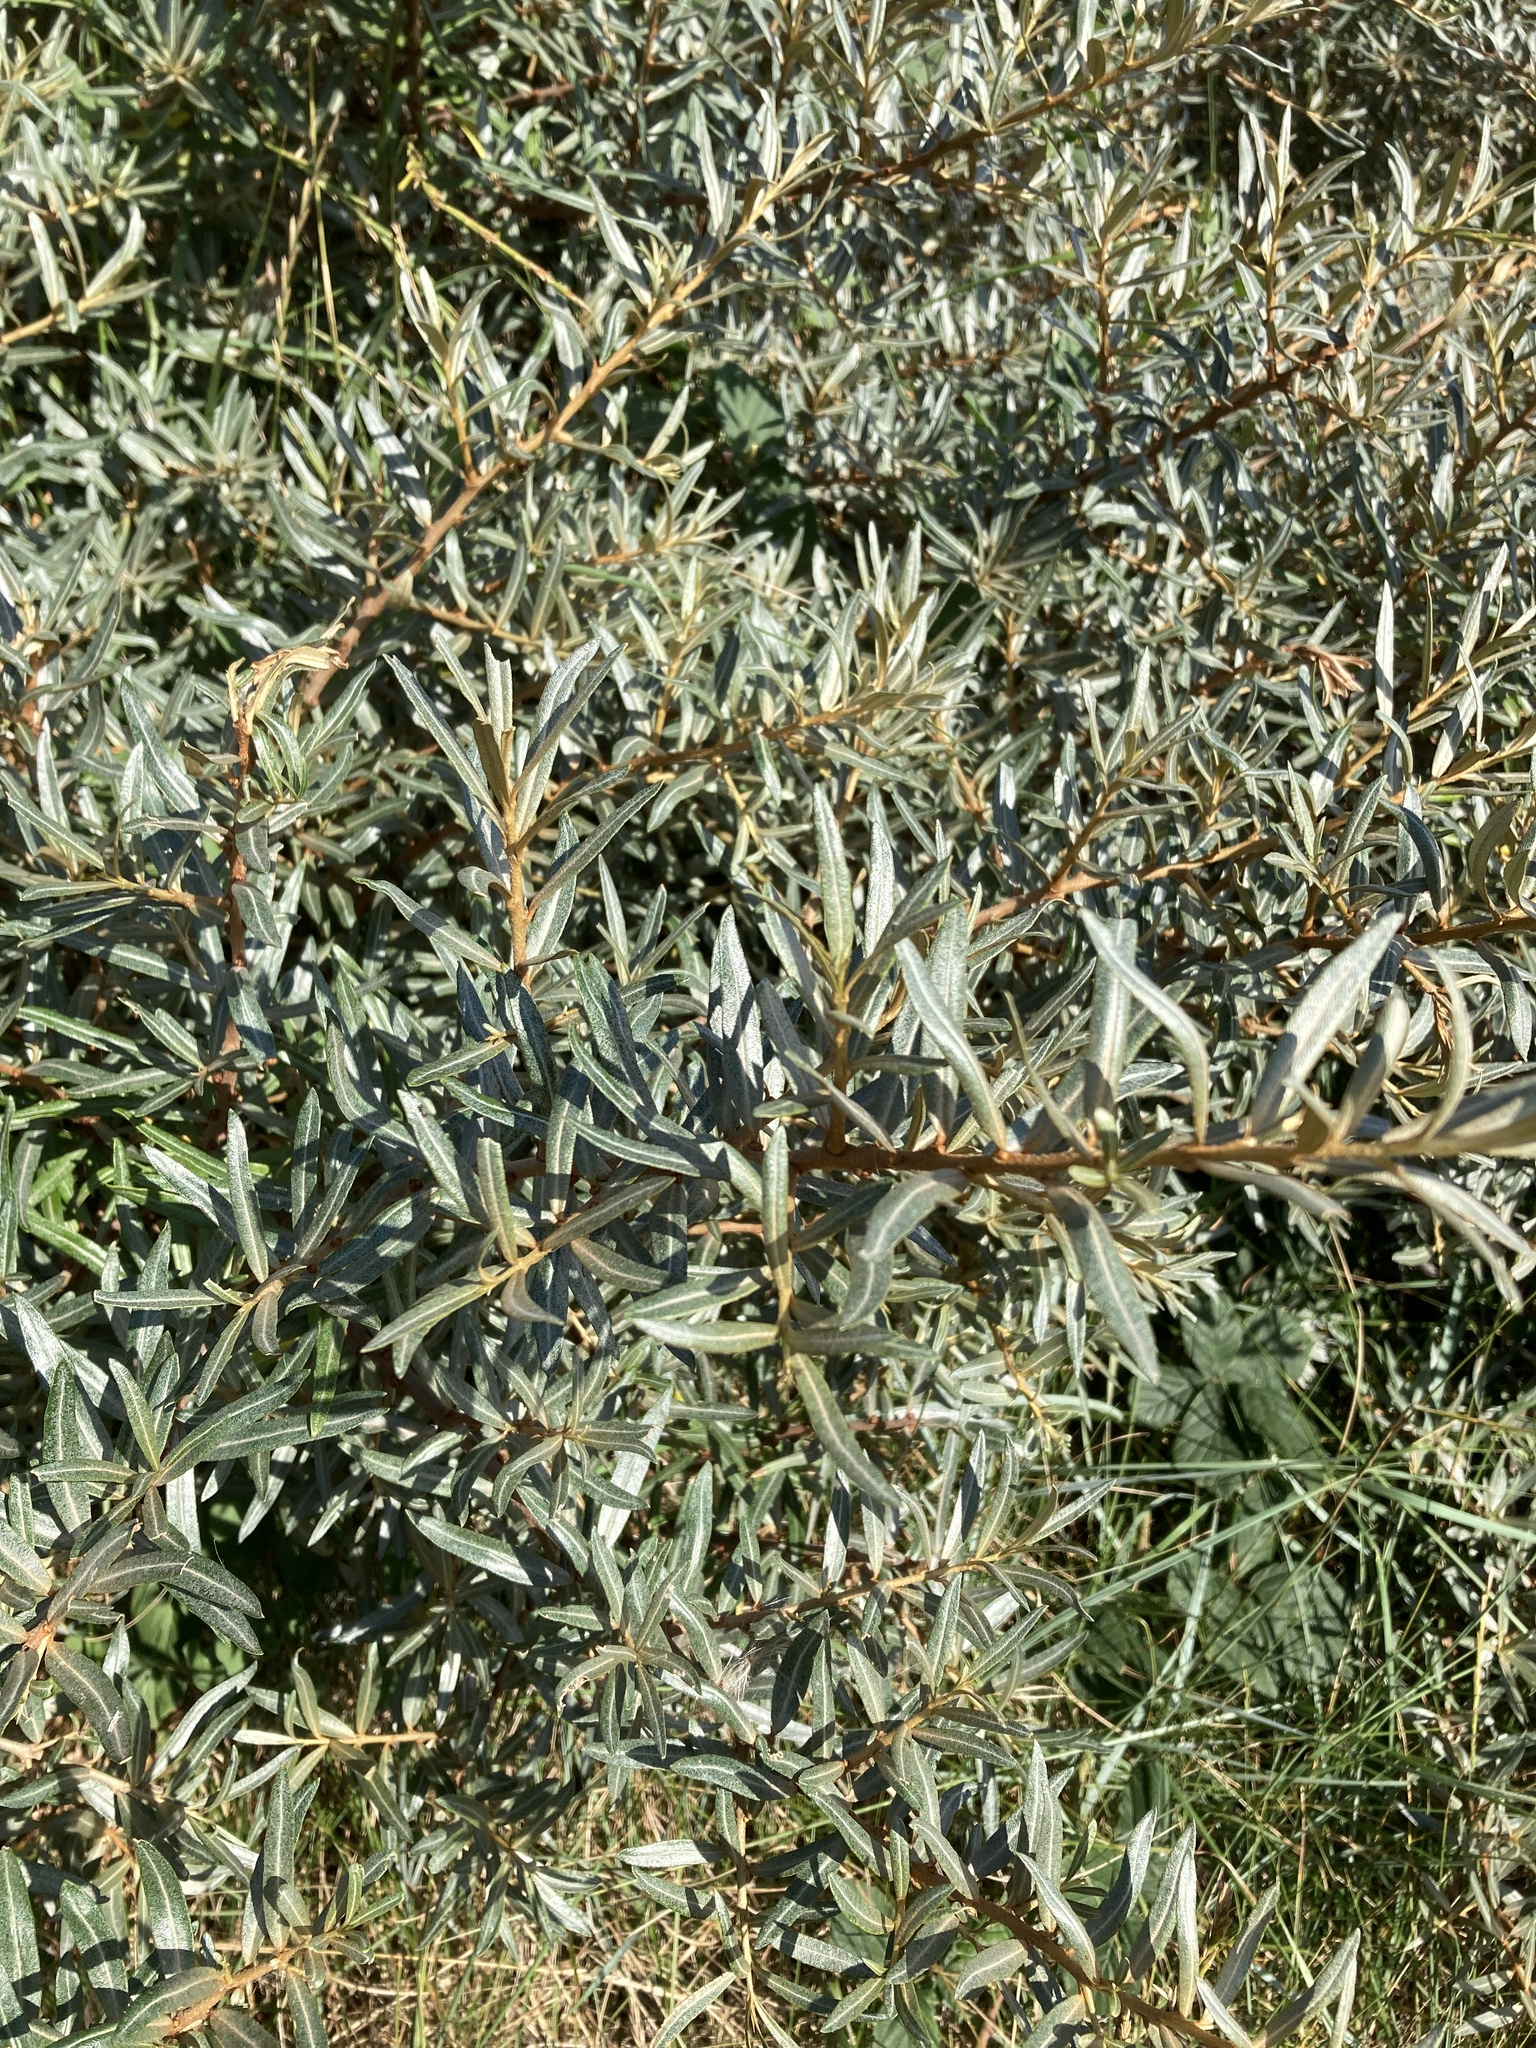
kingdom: Plantae
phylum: Tracheophyta
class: Magnoliopsida
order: Rosales
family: Elaeagnaceae
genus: Hippophae
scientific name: Hippophae rhamnoides
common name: Sea-buckthorn
